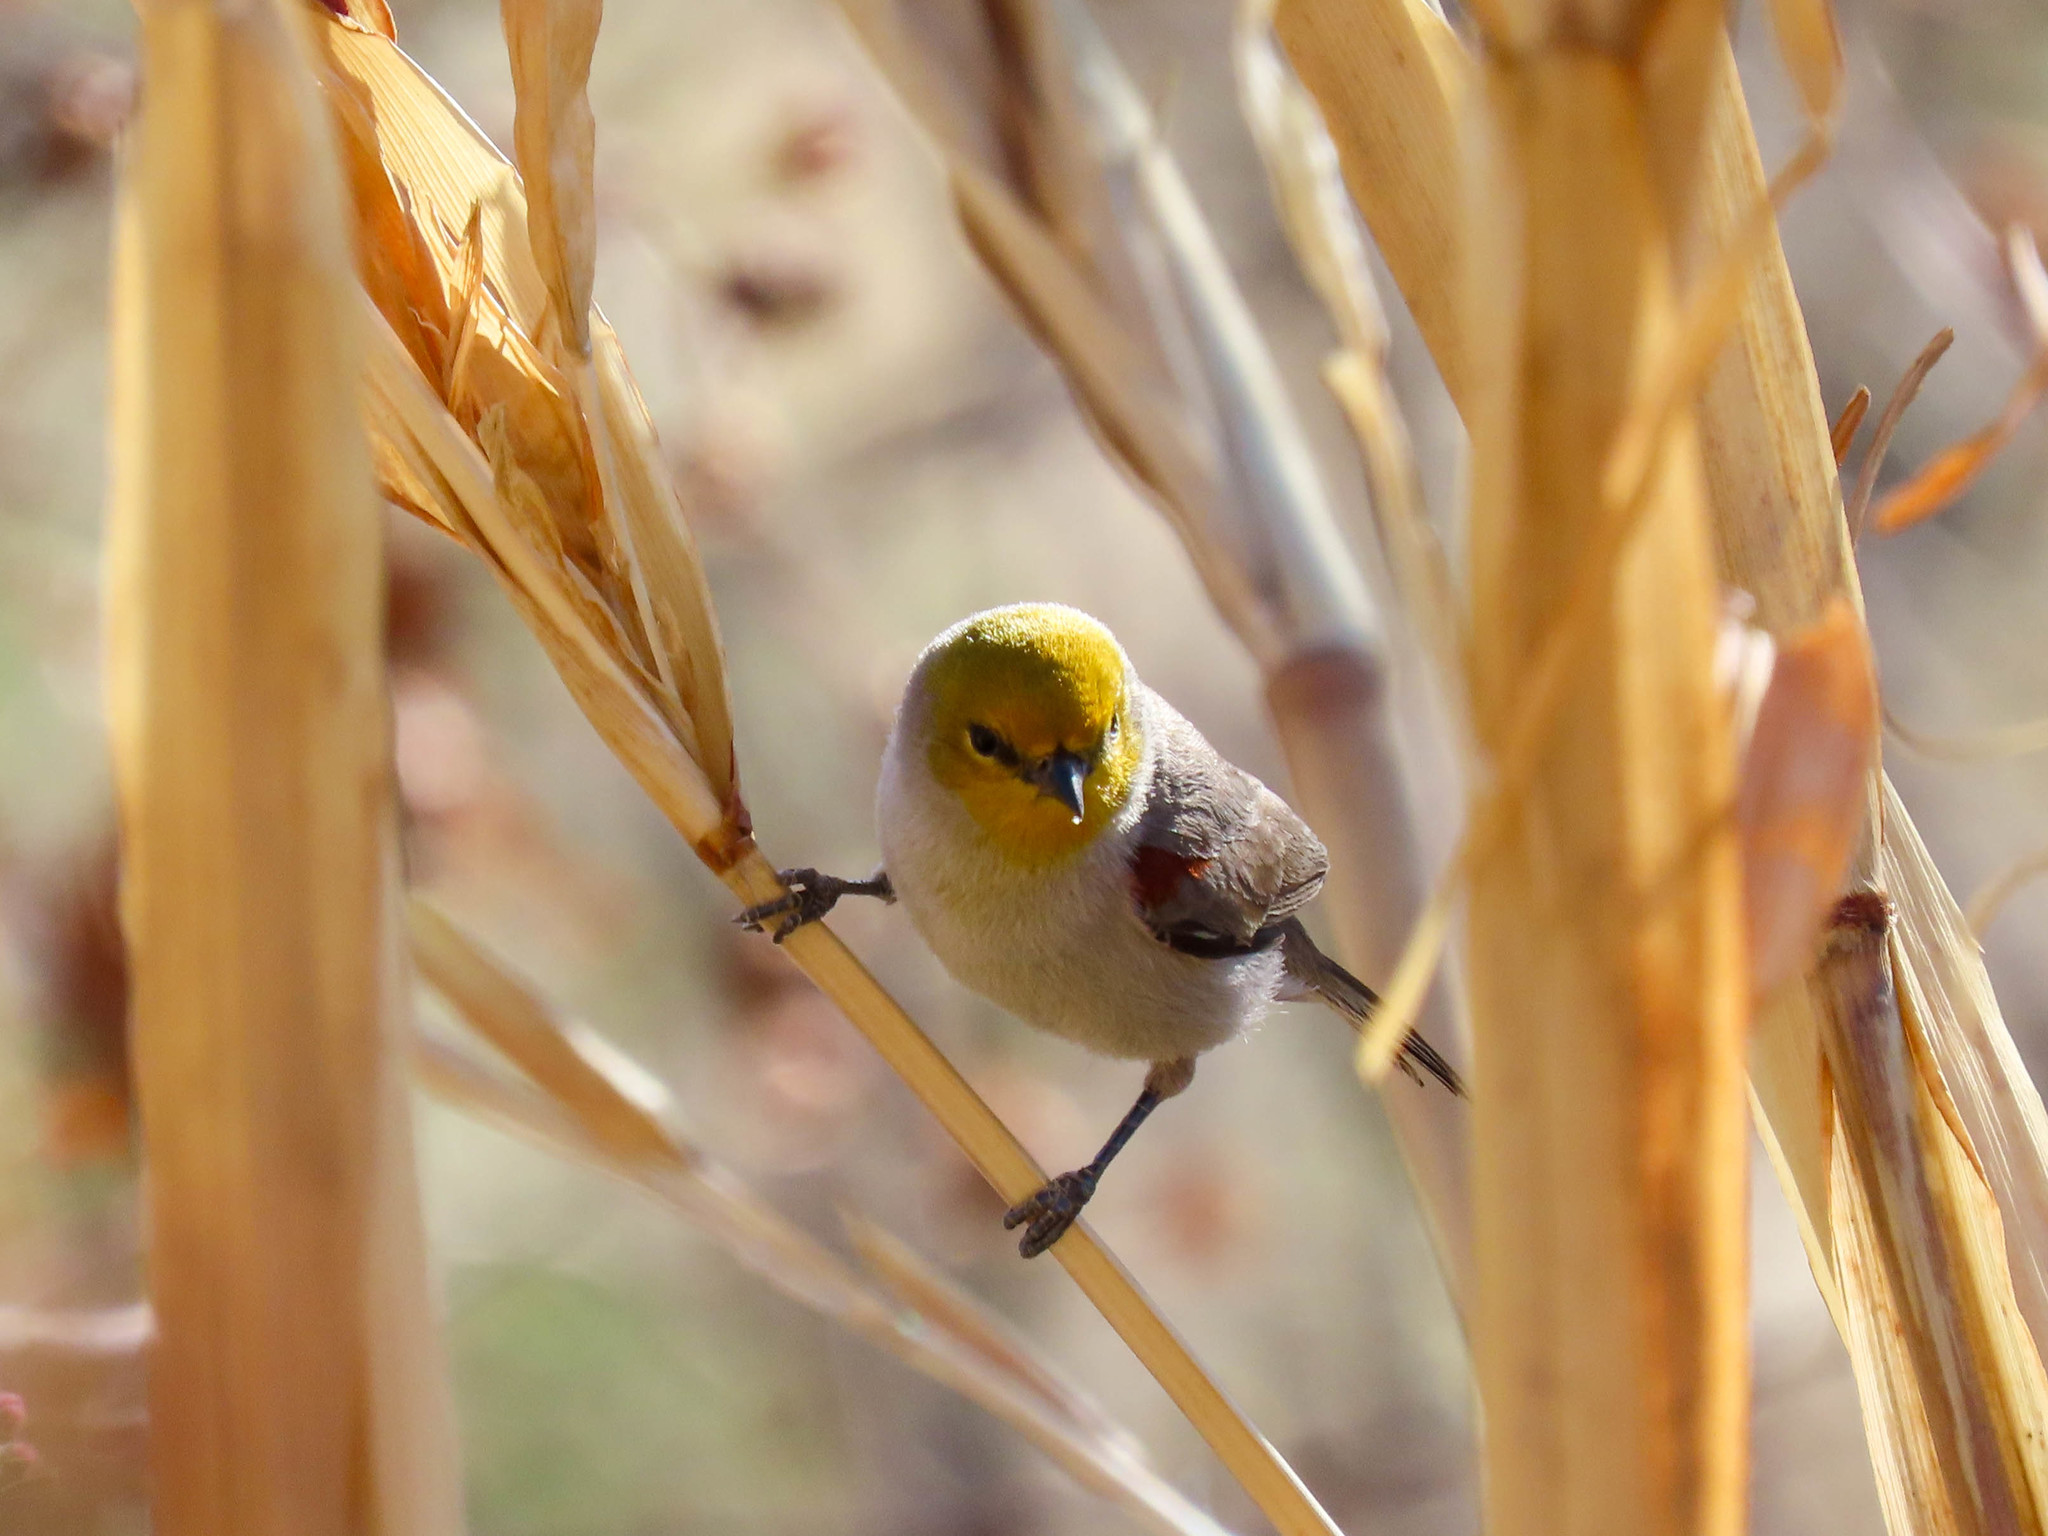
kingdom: Animalia
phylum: Chordata
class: Aves
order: Passeriformes
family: Remizidae
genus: Auriparus
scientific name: Auriparus flaviceps
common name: Verdin
